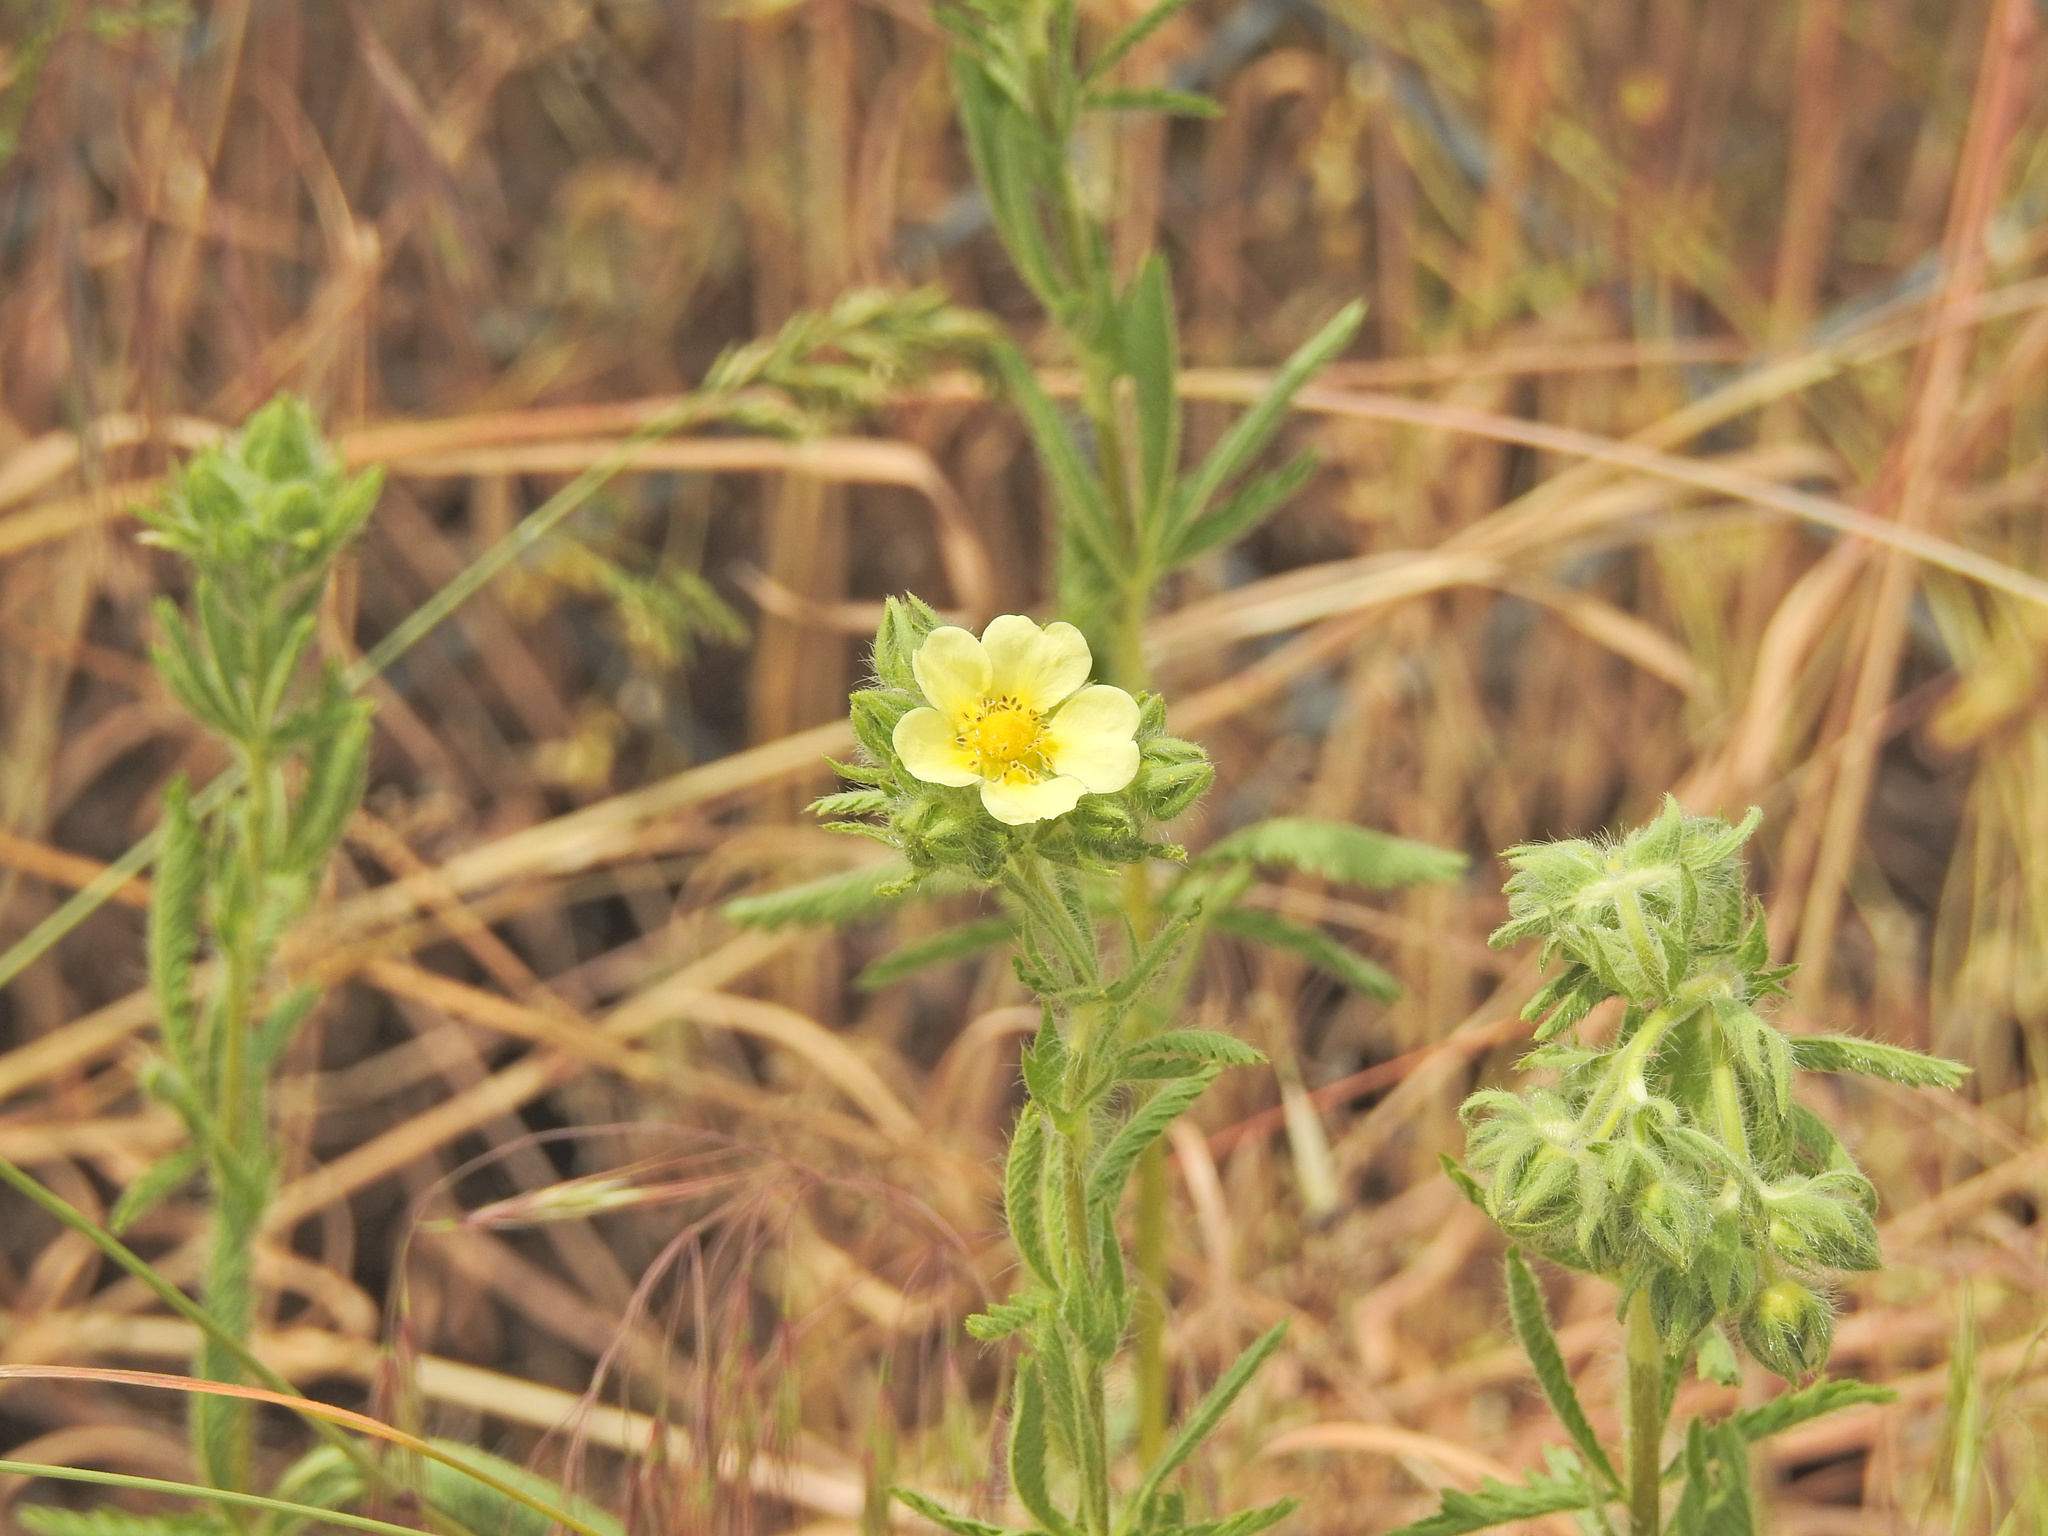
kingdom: Plantae
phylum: Tracheophyta
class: Magnoliopsida
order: Rosales
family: Rosaceae
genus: Potentilla
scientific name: Potentilla recta
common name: Sulphur cinquefoil
